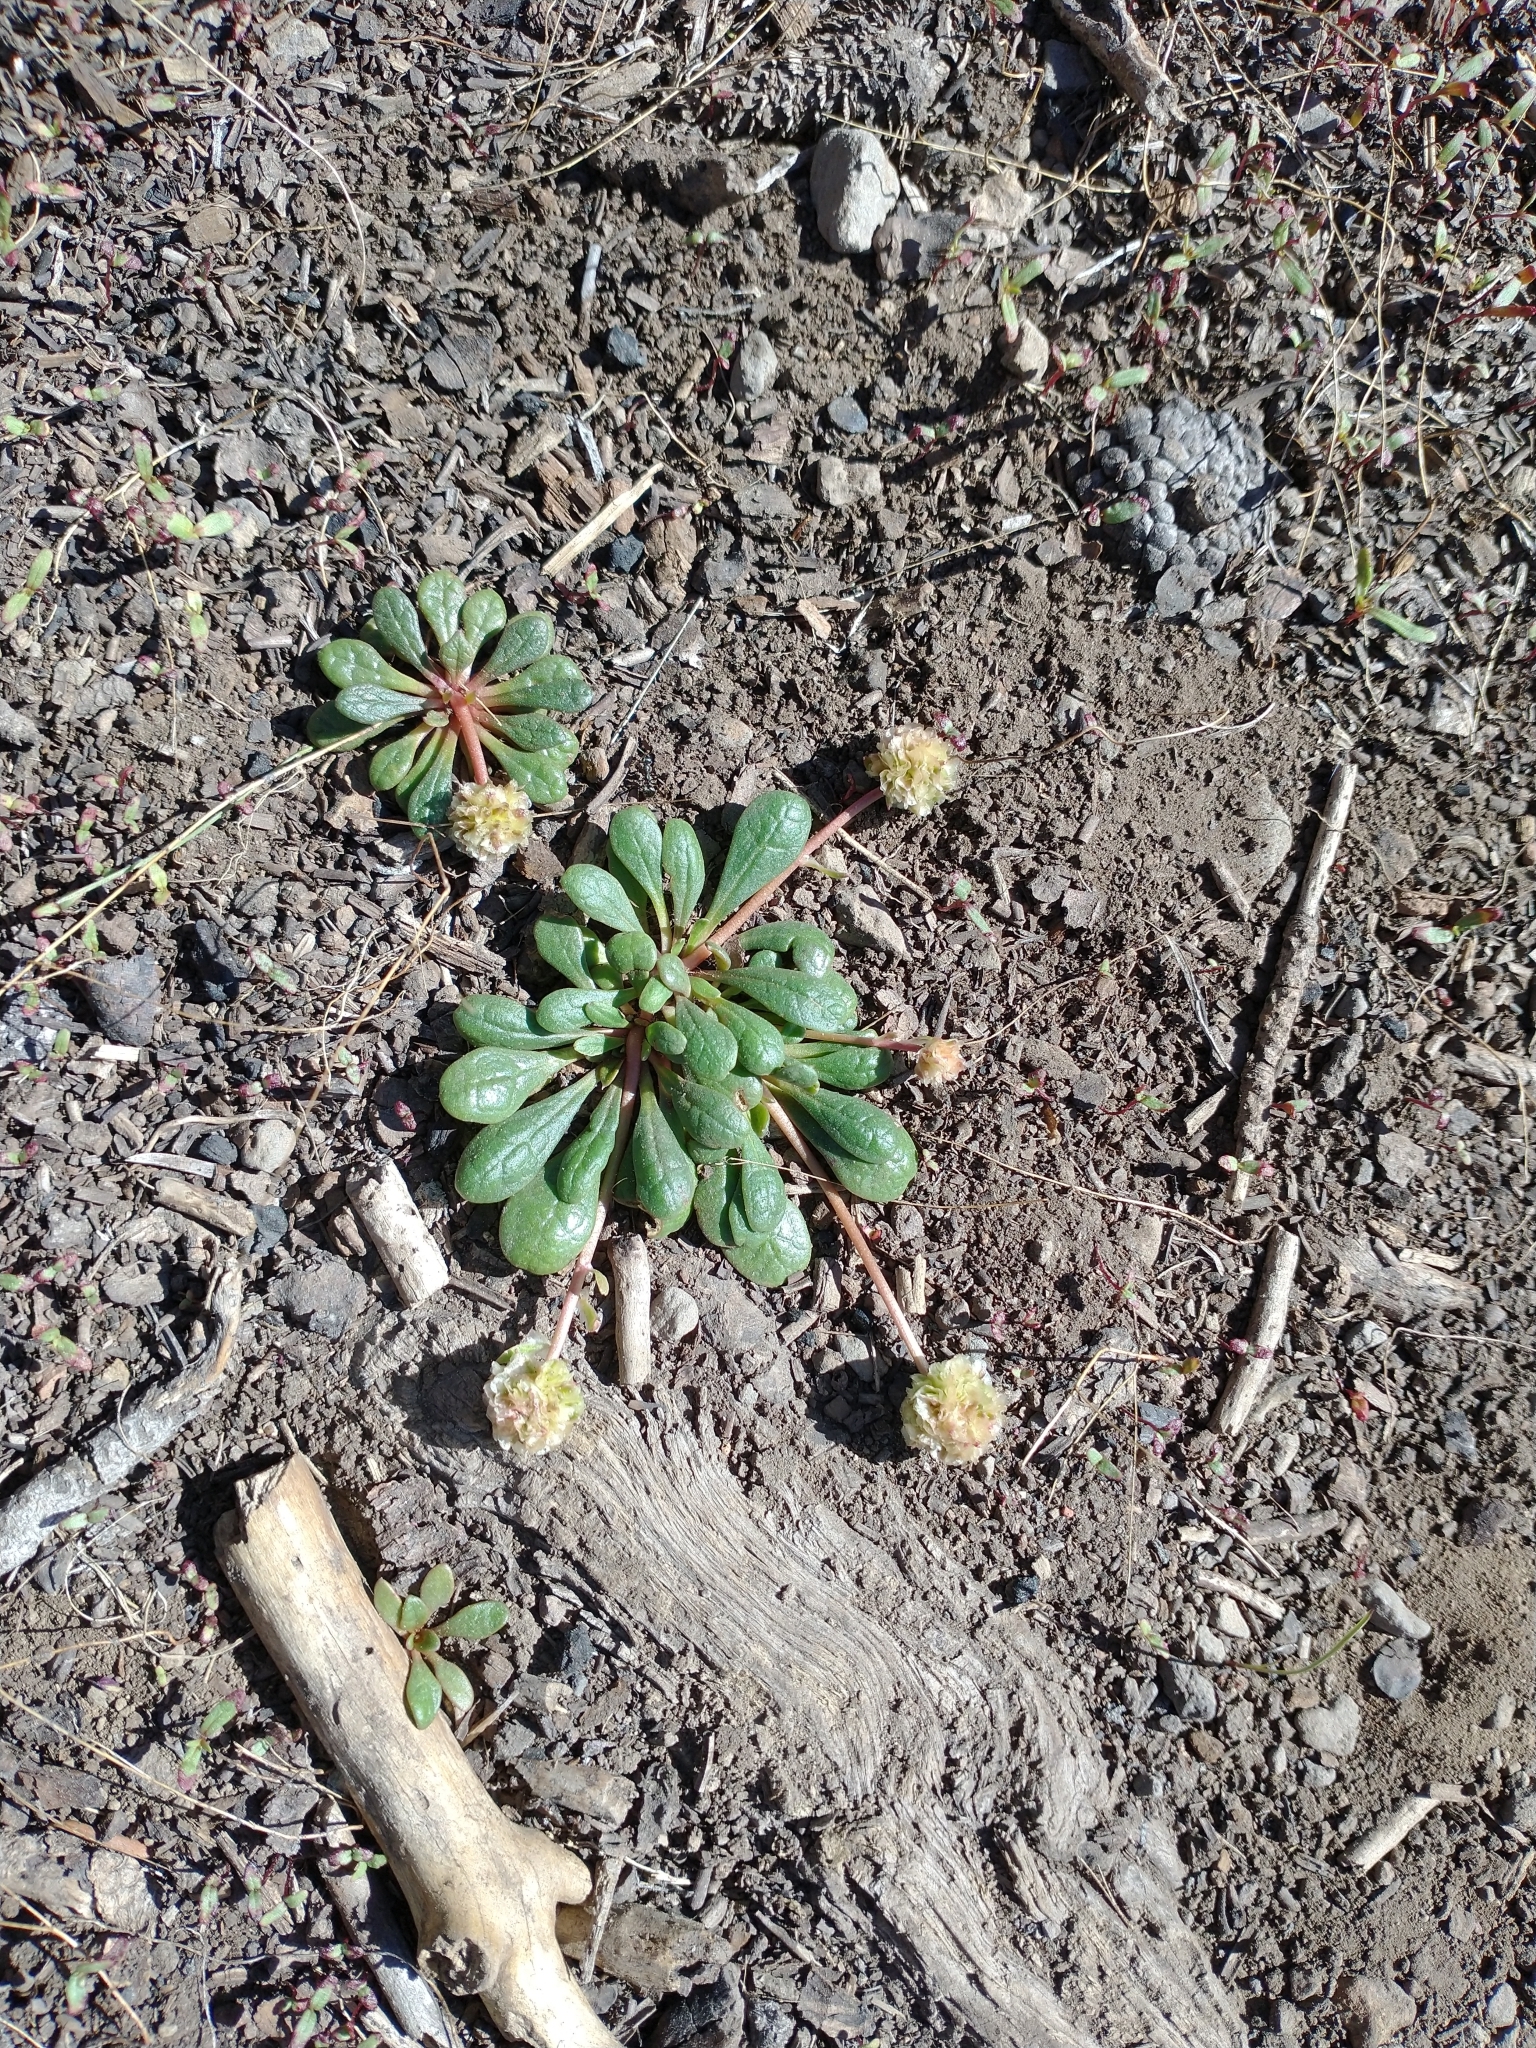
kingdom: Plantae
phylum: Tracheophyta
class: Magnoliopsida
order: Caryophyllales
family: Montiaceae
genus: Calyptridium
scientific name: Calyptridium umbellatum
